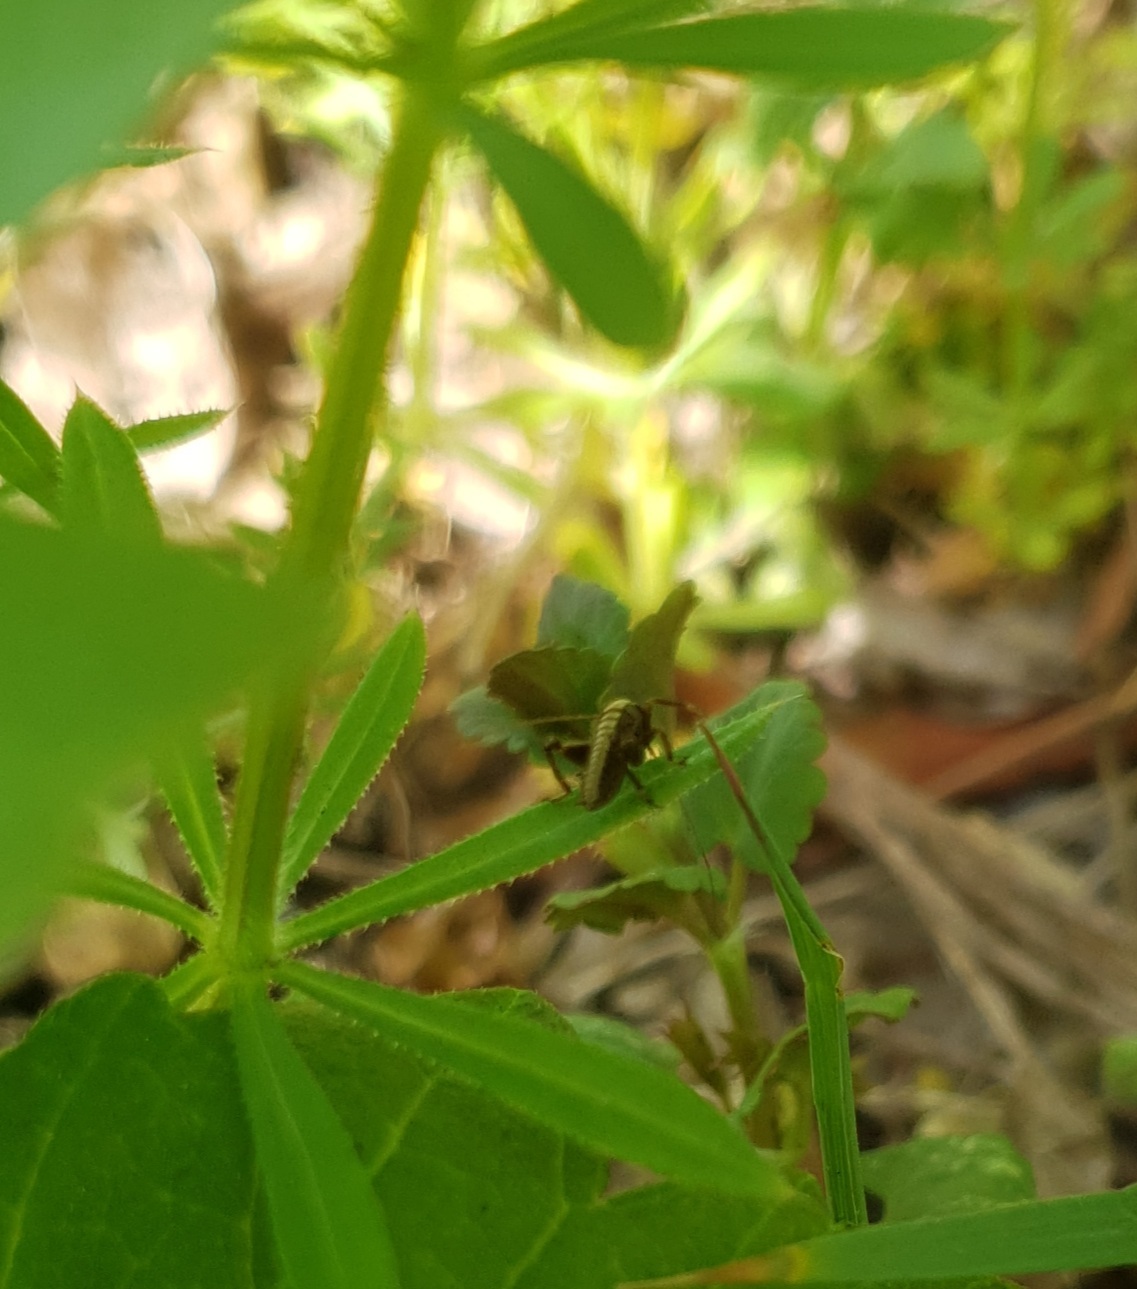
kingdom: Animalia
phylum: Arthropoda
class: Insecta
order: Orthoptera
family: Tettigoniidae
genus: Pholidoptera
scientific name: Pholidoptera griseoaptera
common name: Dark bush-cricket
